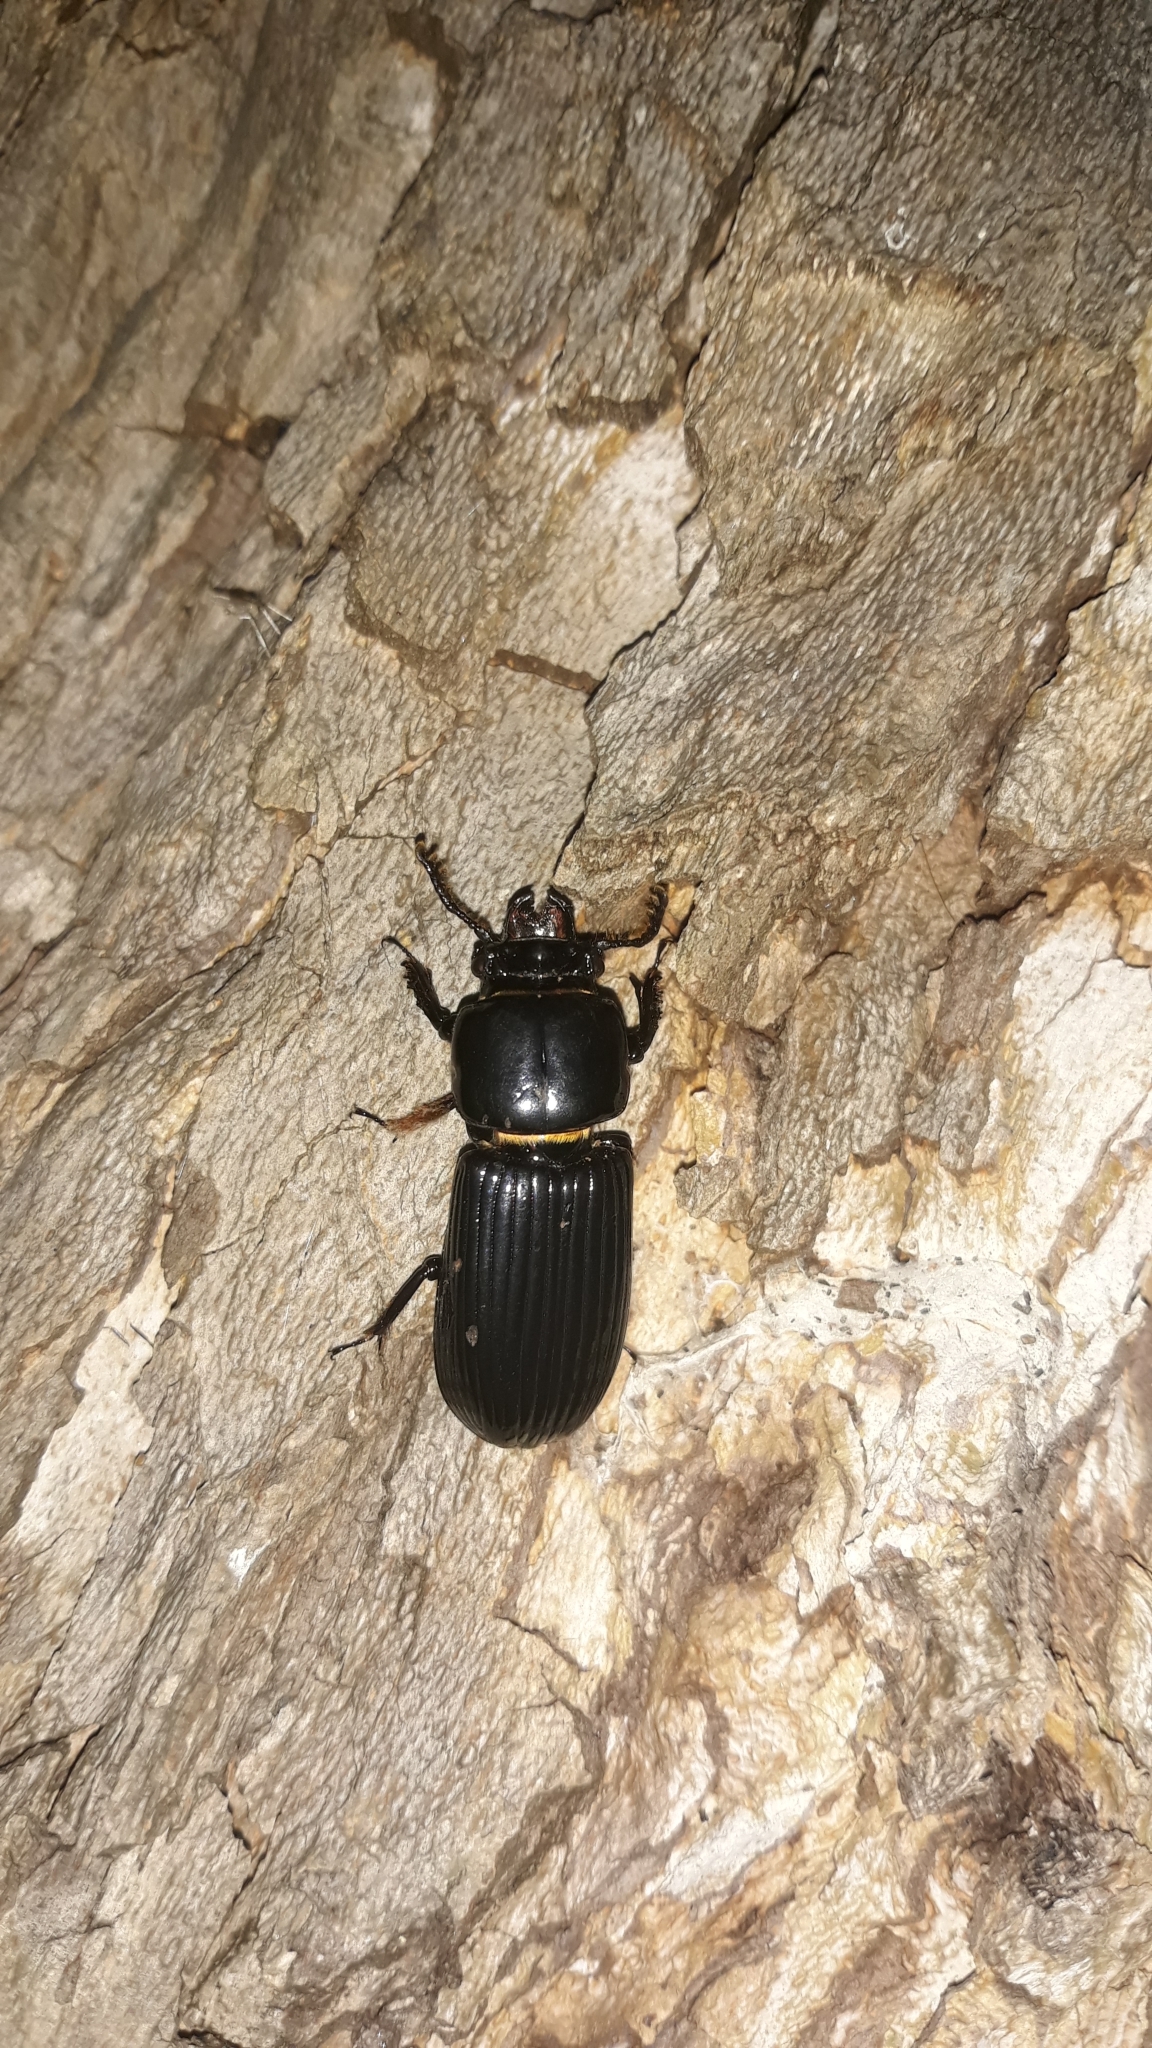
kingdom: Animalia
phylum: Arthropoda
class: Insecta
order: Coleoptera
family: Passalidae
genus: Odontotaenius
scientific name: Odontotaenius disjunctus
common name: Patent leather beetle
